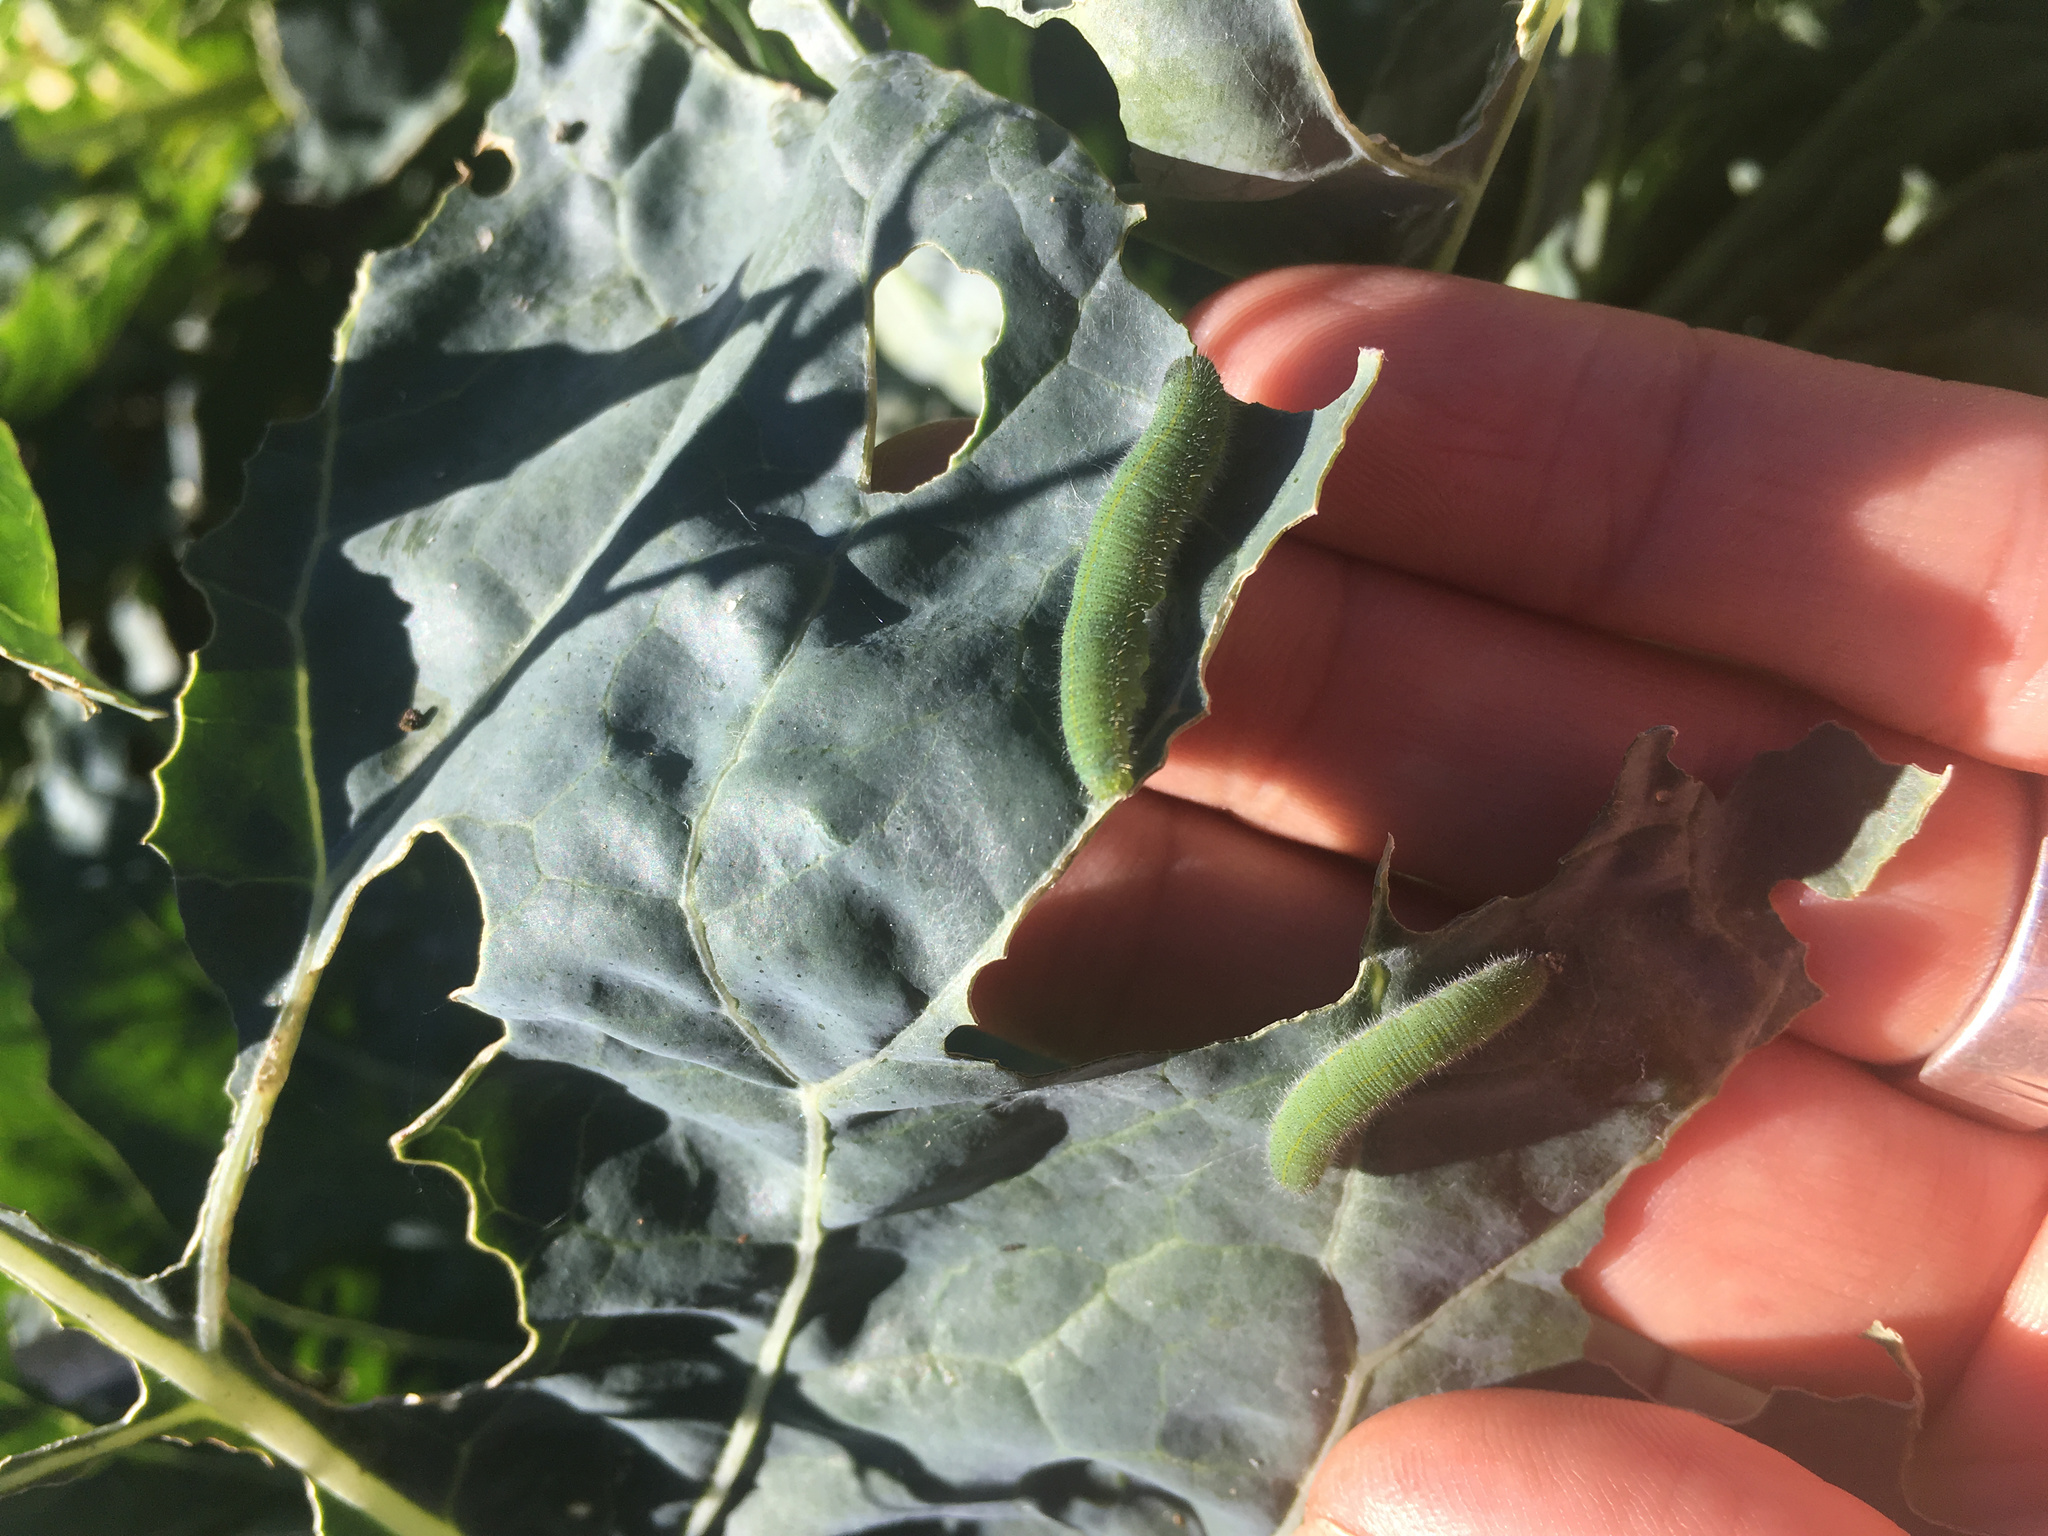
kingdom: Animalia
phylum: Arthropoda
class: Insecta
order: Lepidoptera
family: Pieridae
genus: Pieris
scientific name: Pieris rapae
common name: Small white
